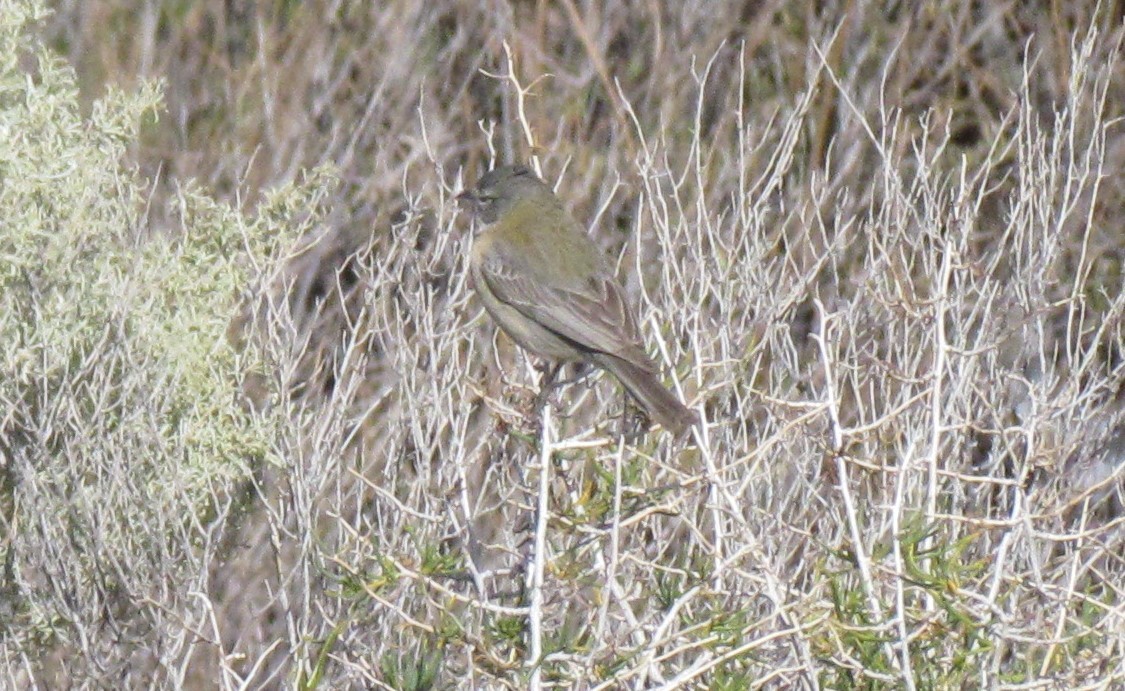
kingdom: Animalia
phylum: Chordata
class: Aves
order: Passeriformes
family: Thraupidae
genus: Phrygilus
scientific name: Phrygilus gayi
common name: Grey-hooded sierra finch
